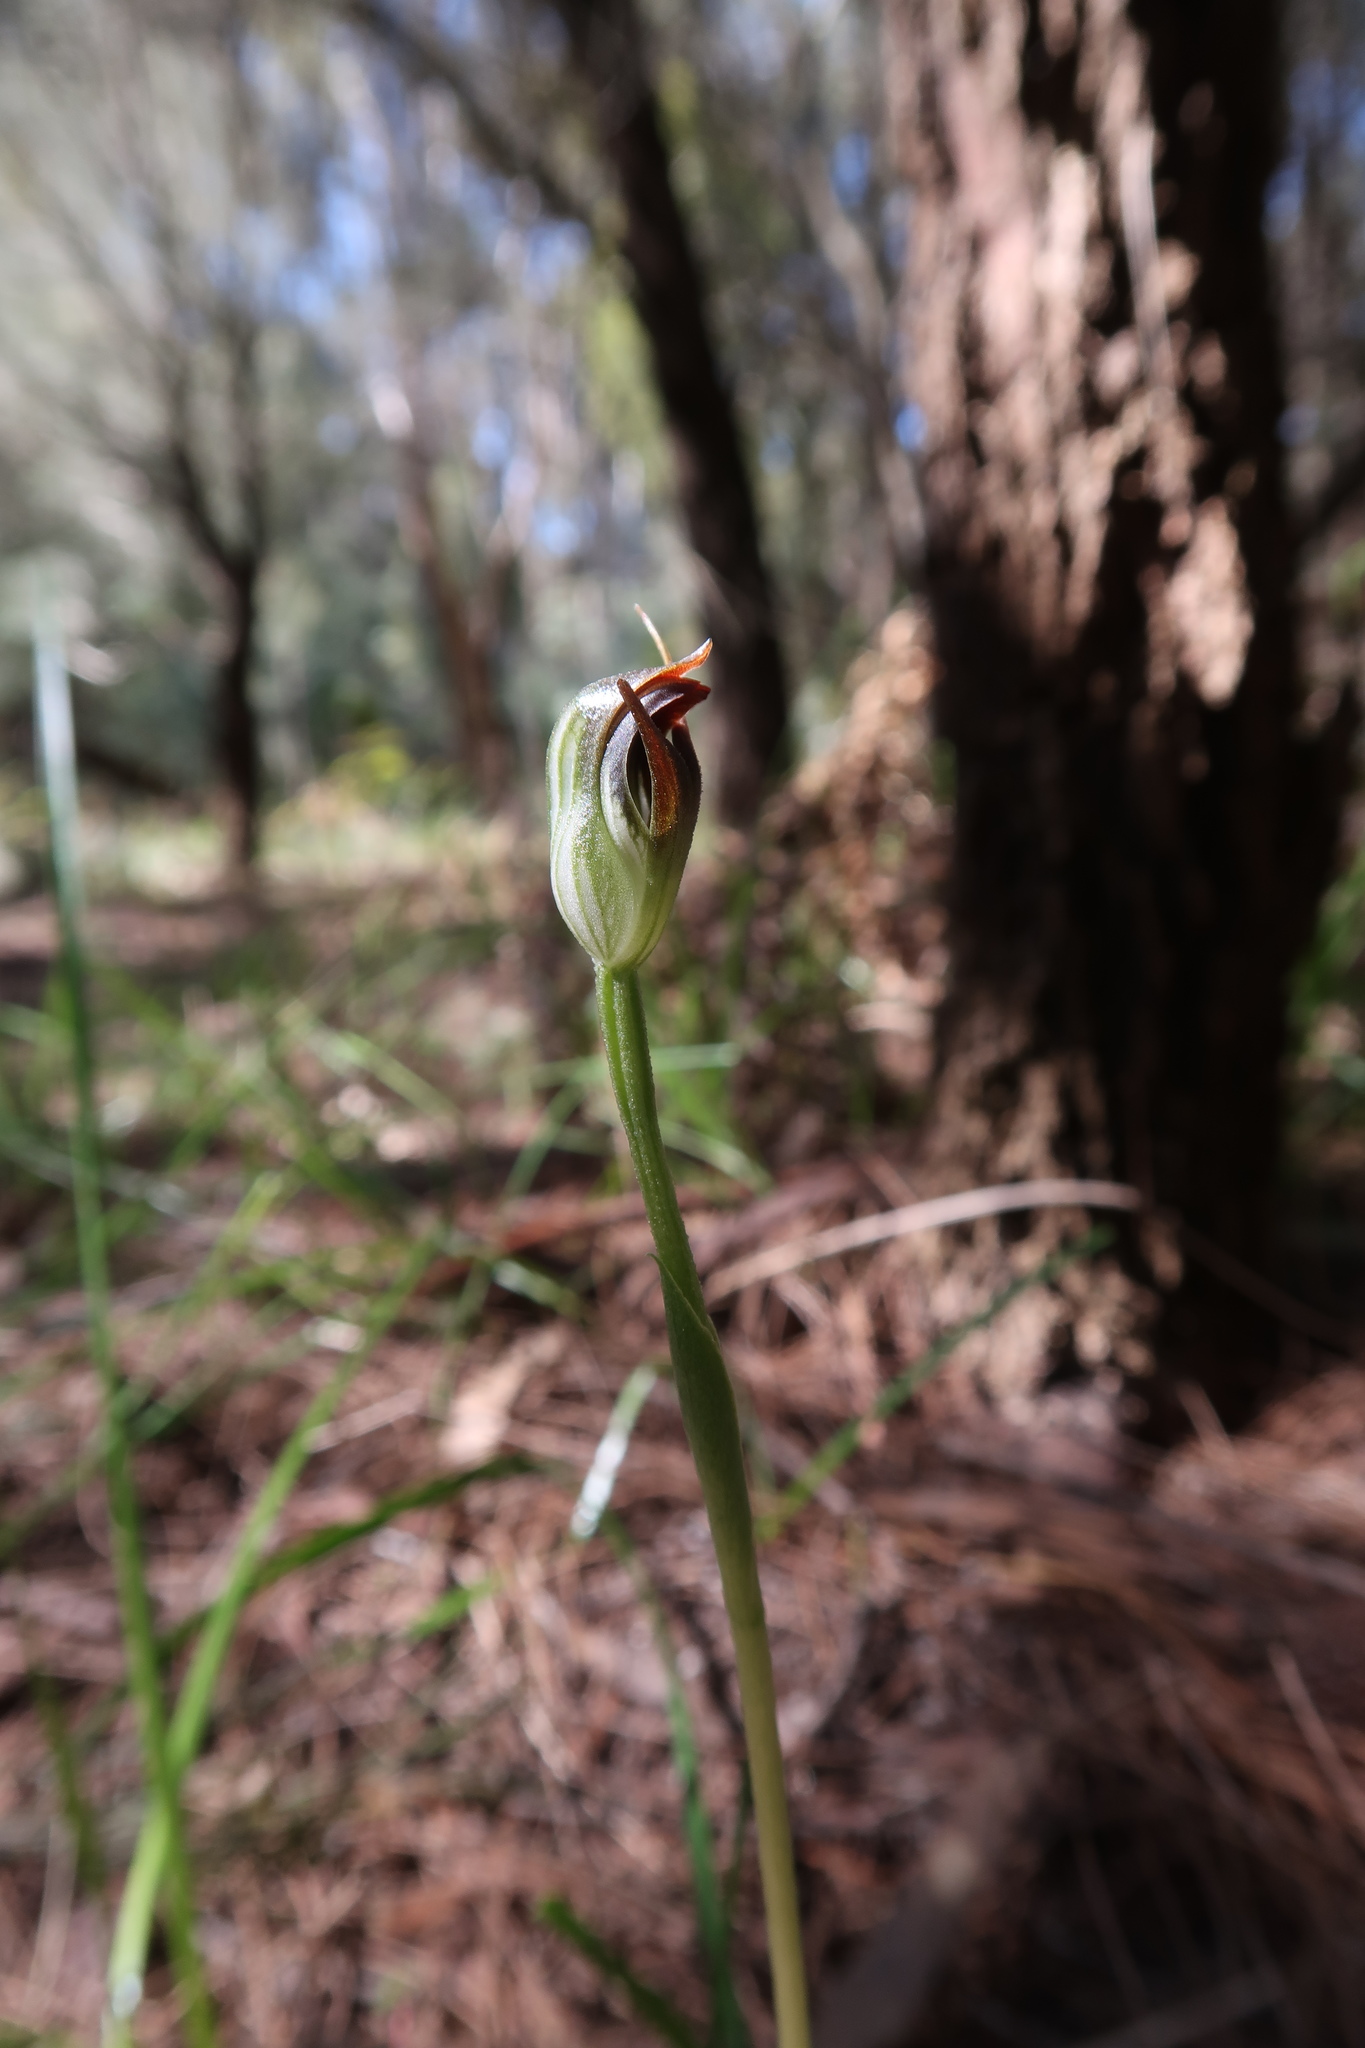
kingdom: Plantae
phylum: Tracheophyta
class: Liliopsida
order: Asparagales
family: Orchidaceae
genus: Pterostylis
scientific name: Pterostylis pedunculata
